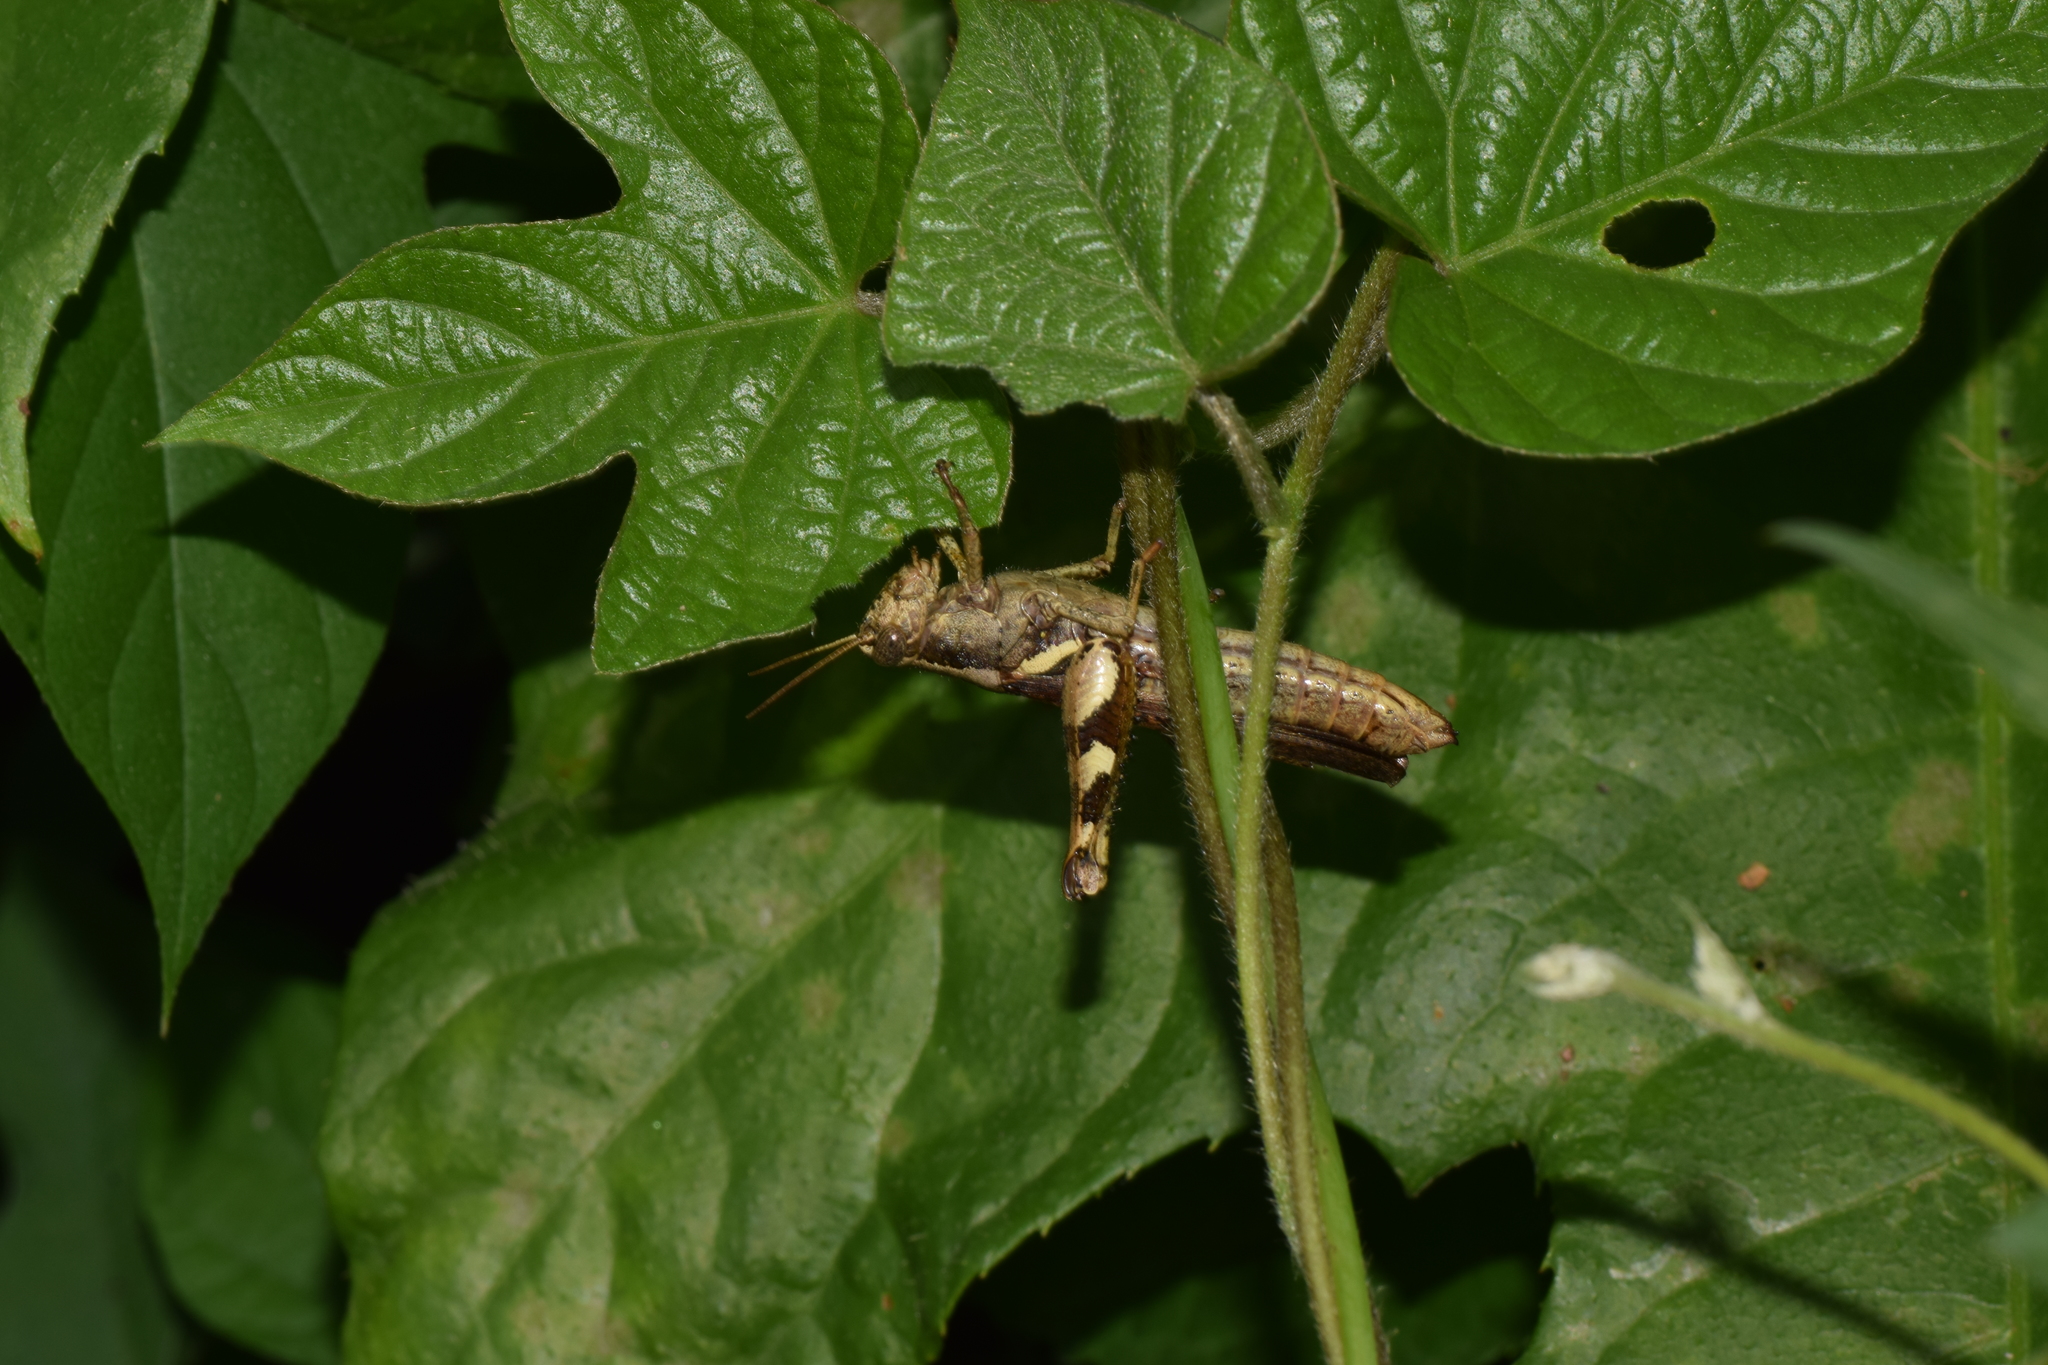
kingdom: Animalia
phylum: Arthropoda
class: Insecta
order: Orthoptera
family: Acrididae
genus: Xenocatantops
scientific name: Xenocatantops brachycerus
